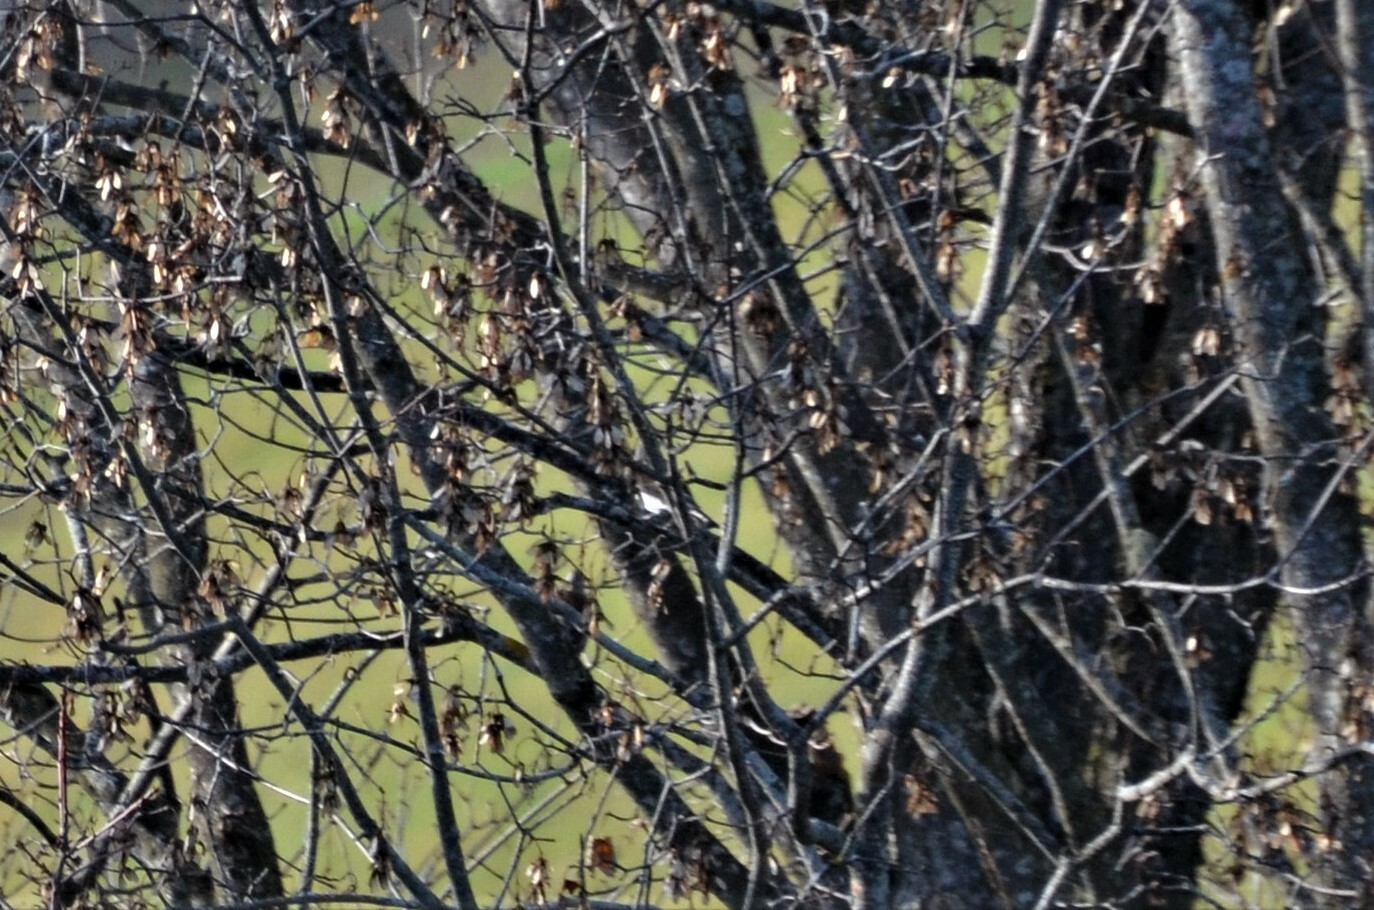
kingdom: Animalia
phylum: Chordata
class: Aves
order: Passeriformes
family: Turdidae
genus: Turdus
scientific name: Turdus pilaris
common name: Fieldfare
